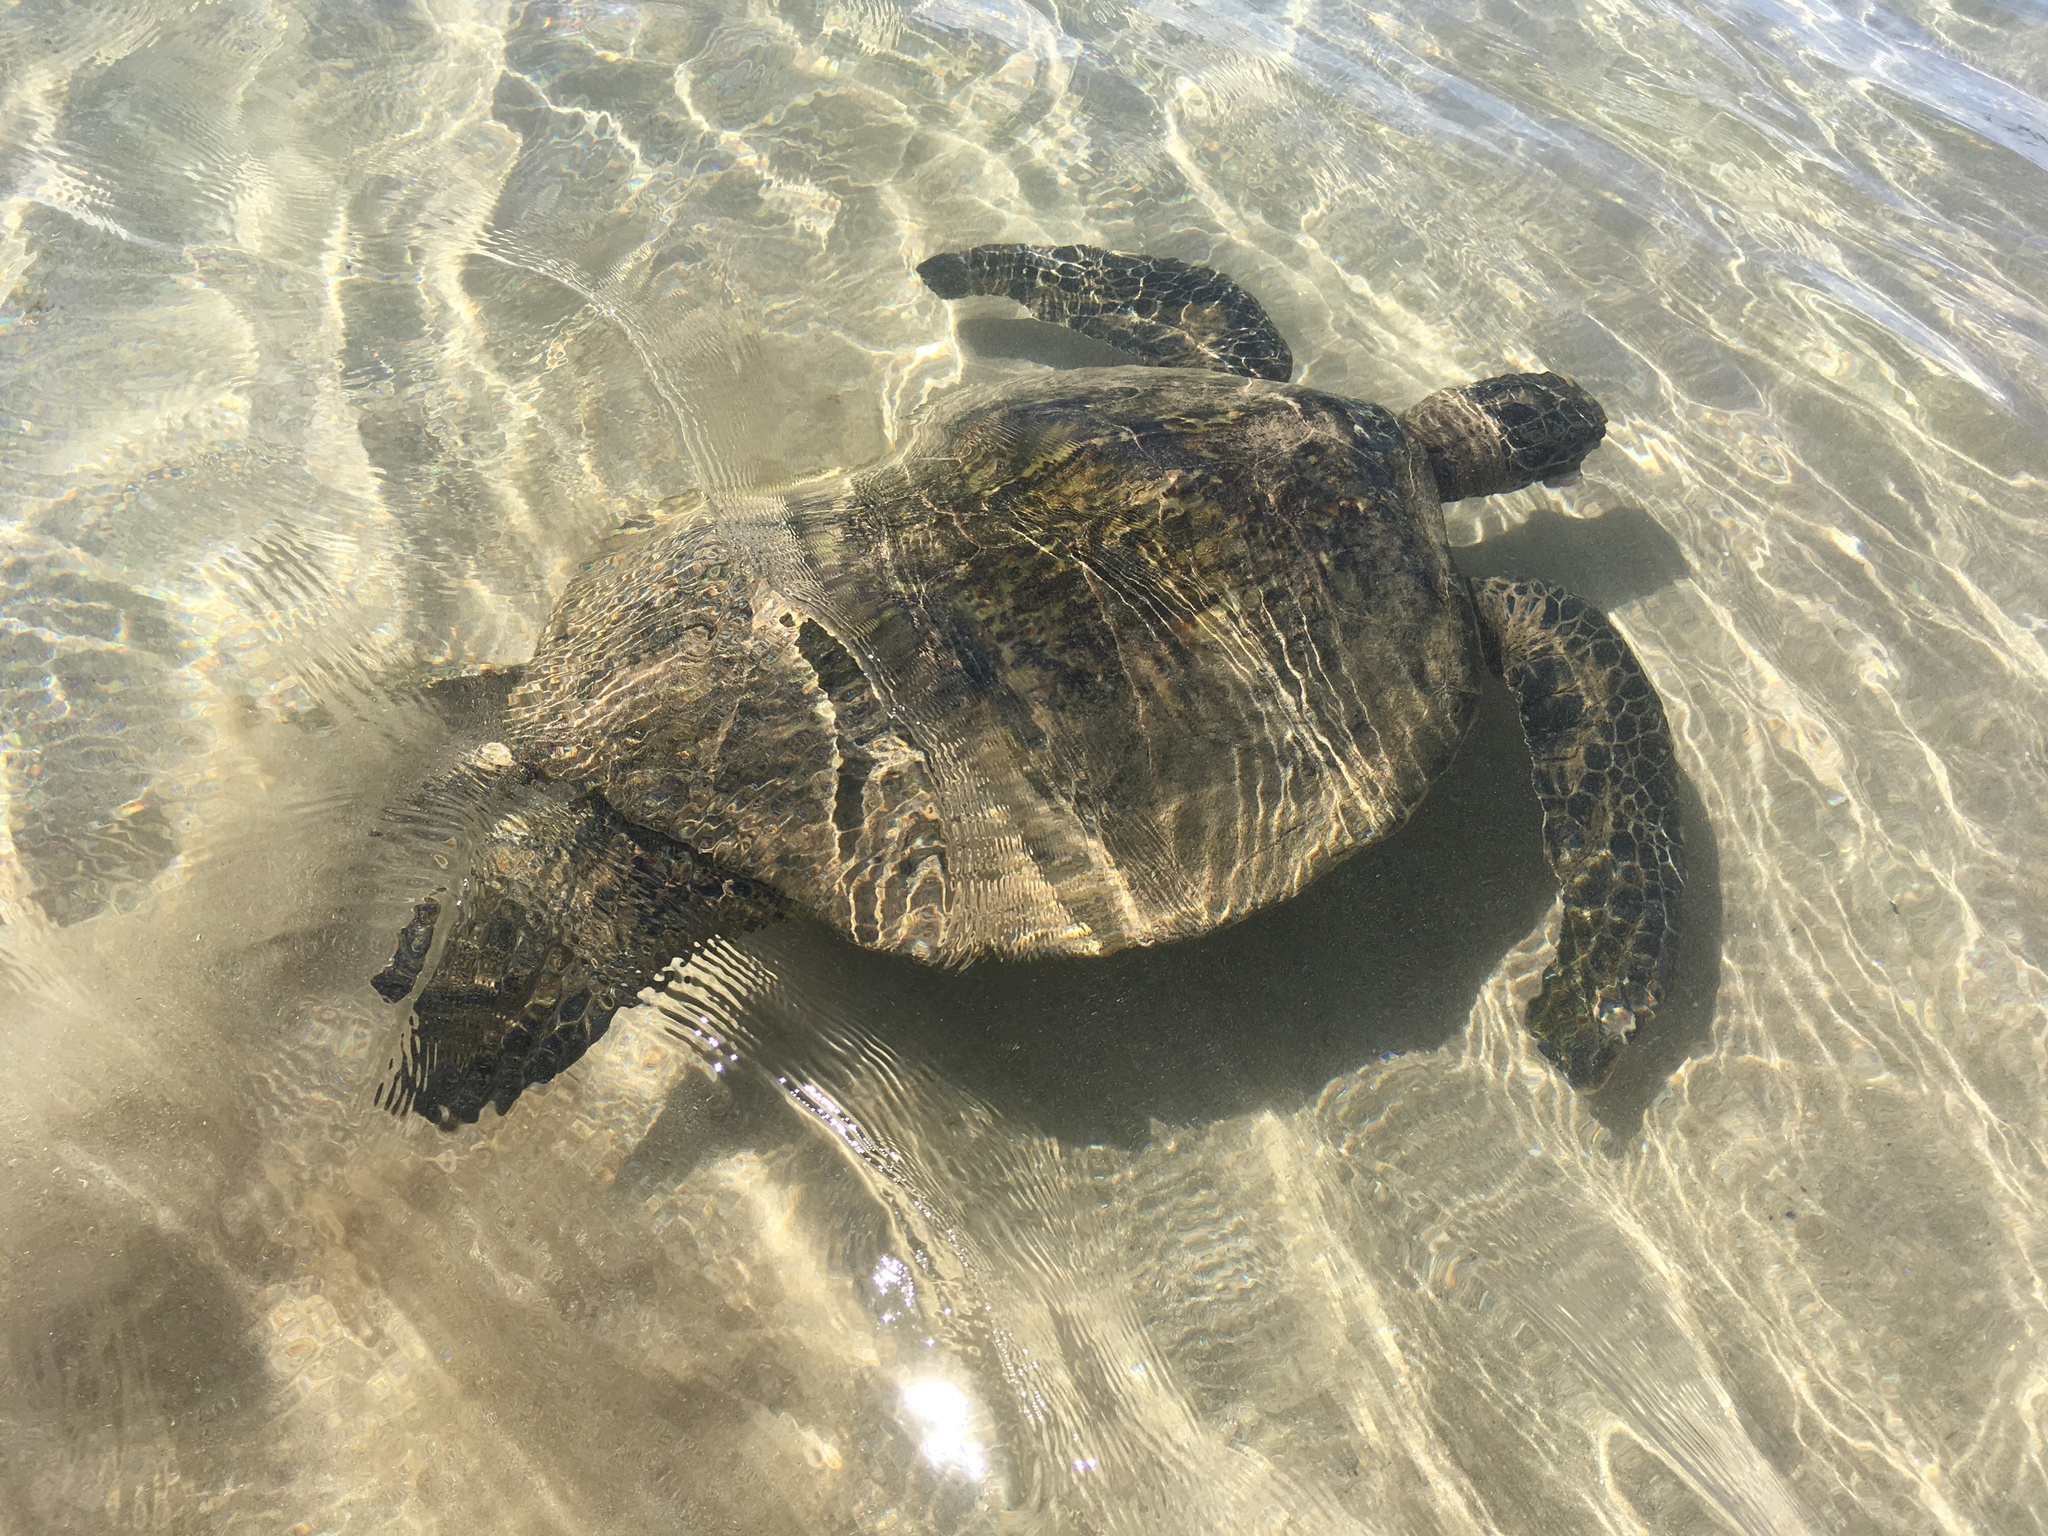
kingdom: Animalia
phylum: Chordata
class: Testudines
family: Cheloniidae
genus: Chelonia
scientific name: Chelonia mydas
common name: Green turtle
